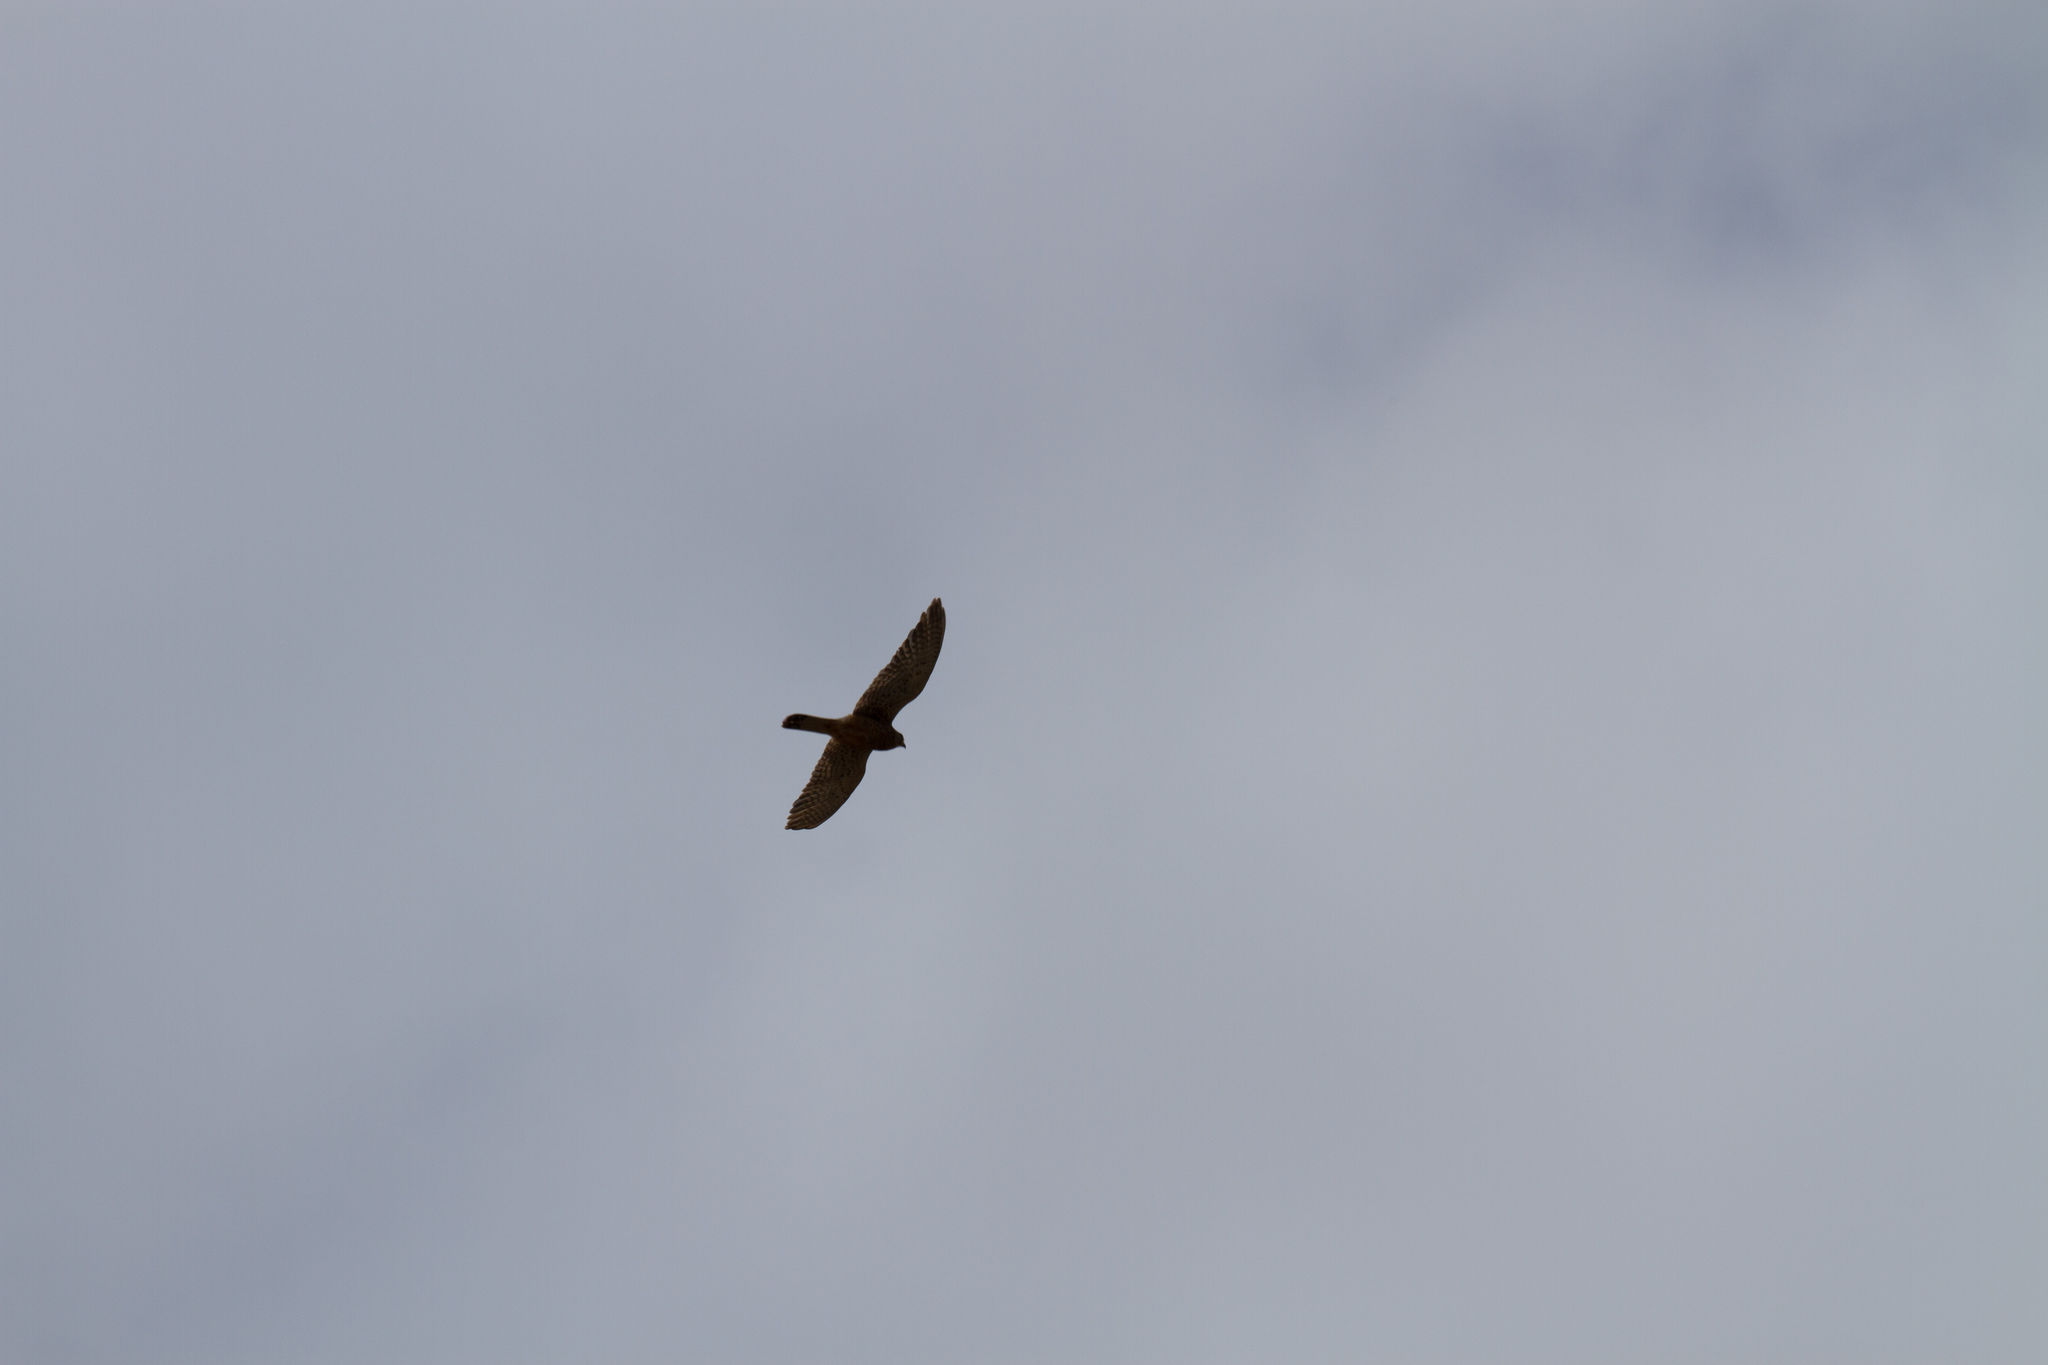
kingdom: Animalia
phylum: Chordata
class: Aves
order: Falconiformes
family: Falconidae
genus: Falco
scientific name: Falco tinnunculus
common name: Common kestrel
